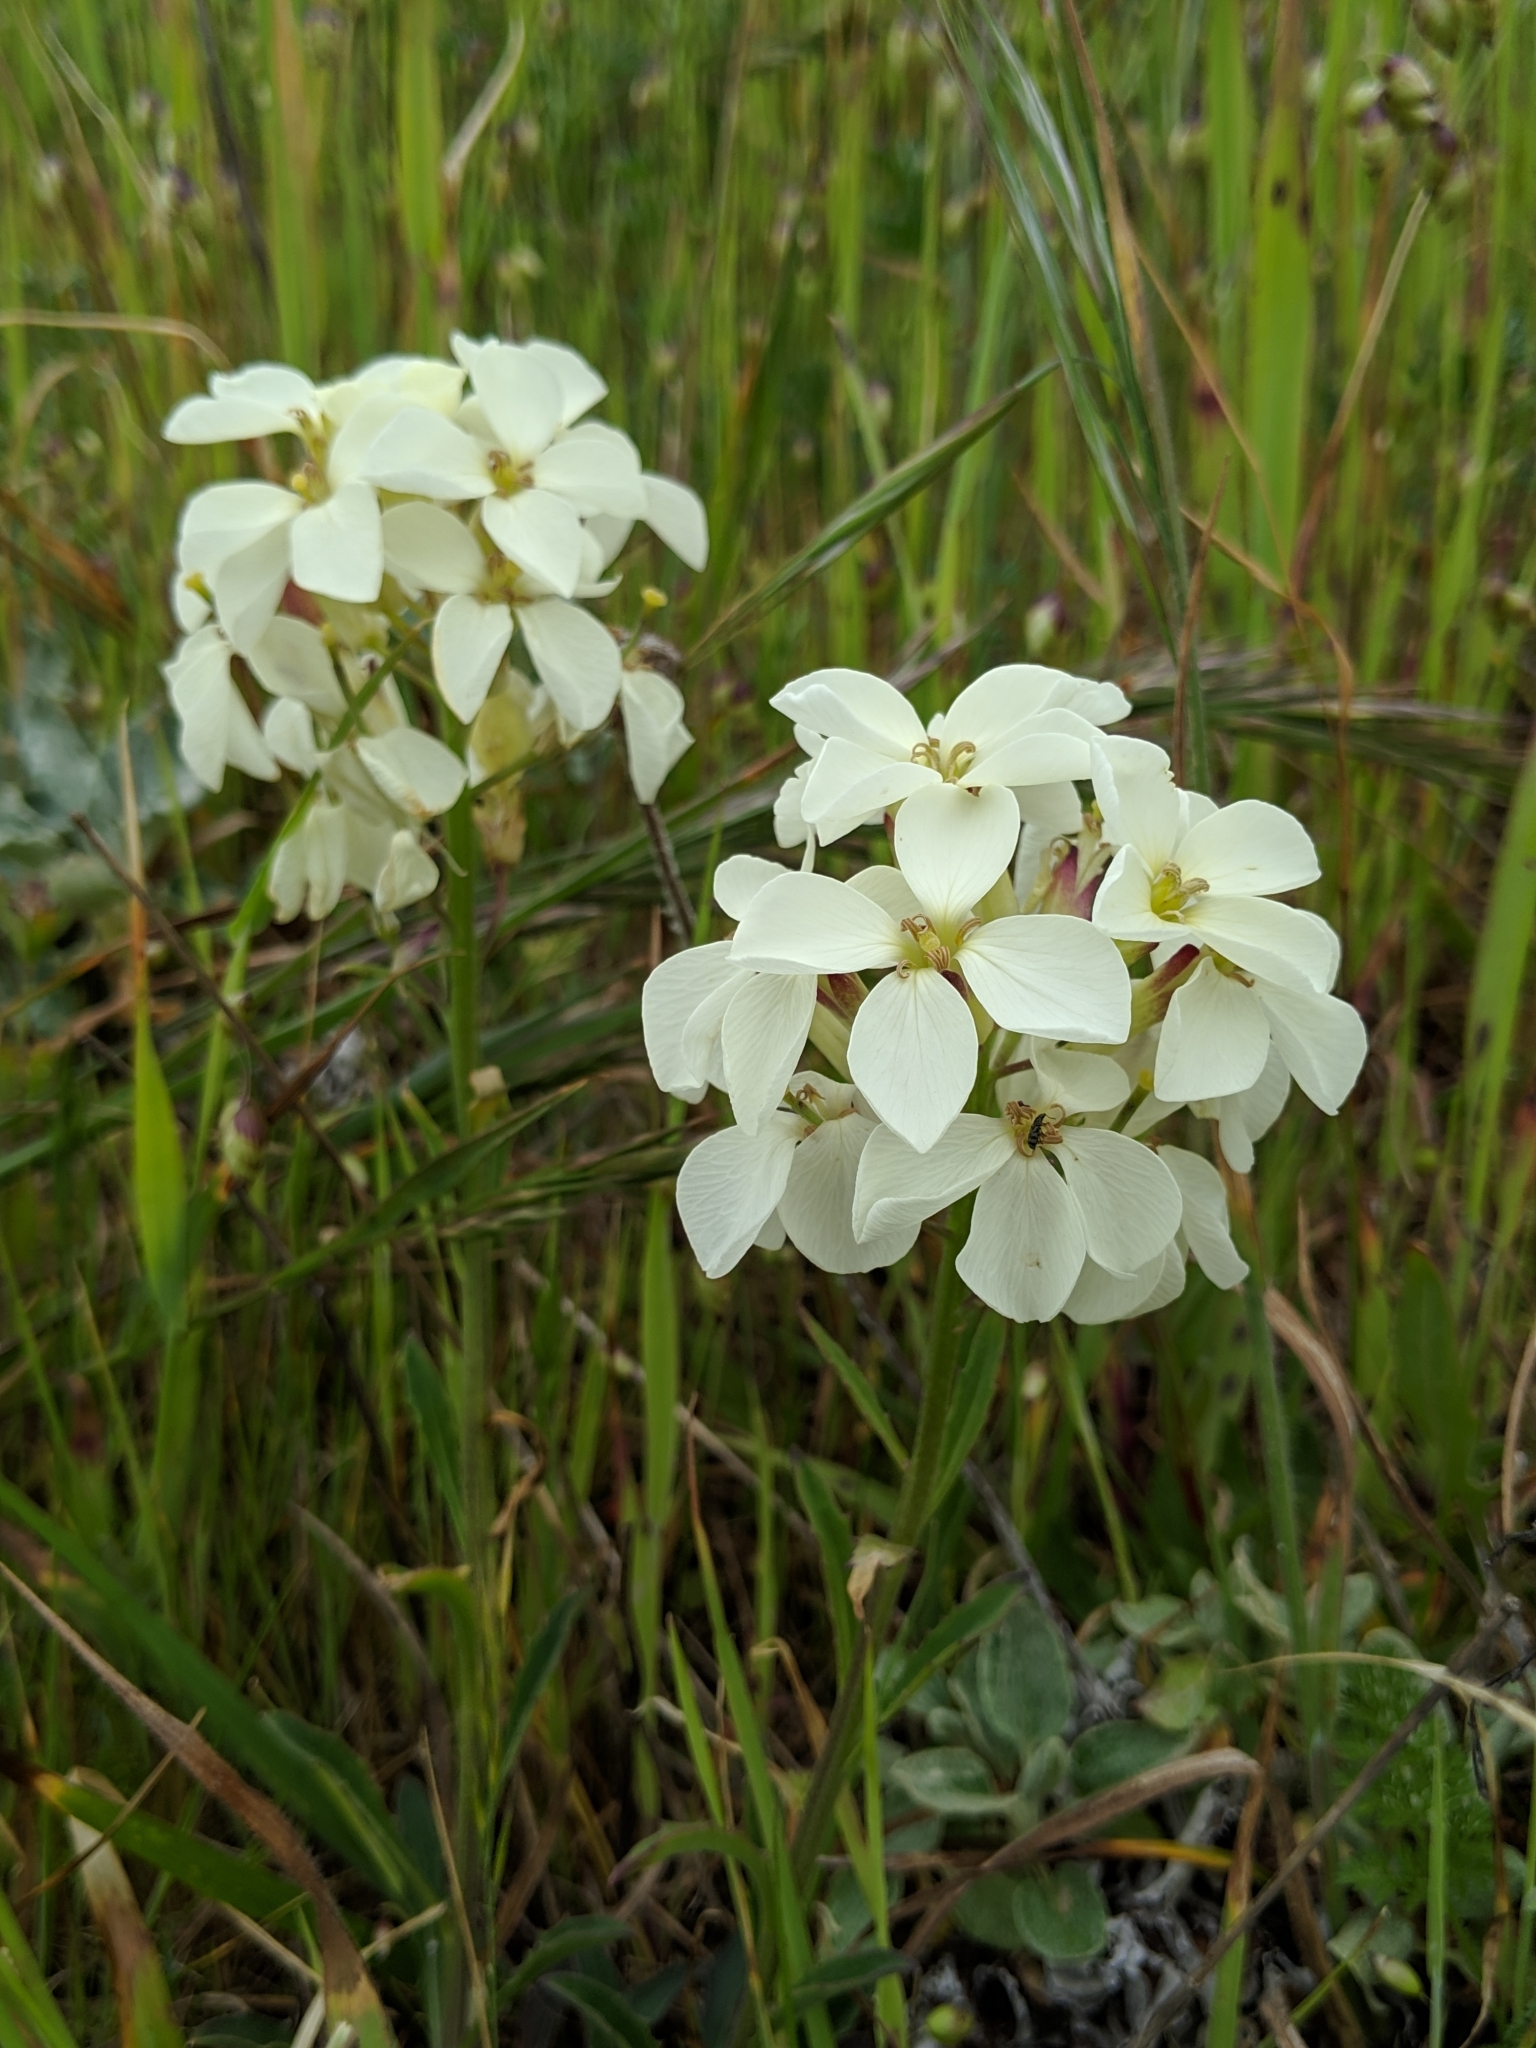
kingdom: Plantae
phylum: Tracheophyta
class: Magnoliopsida
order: Brassicales
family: Brassicaceae
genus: Erysimum
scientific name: Erysimum concinnum
